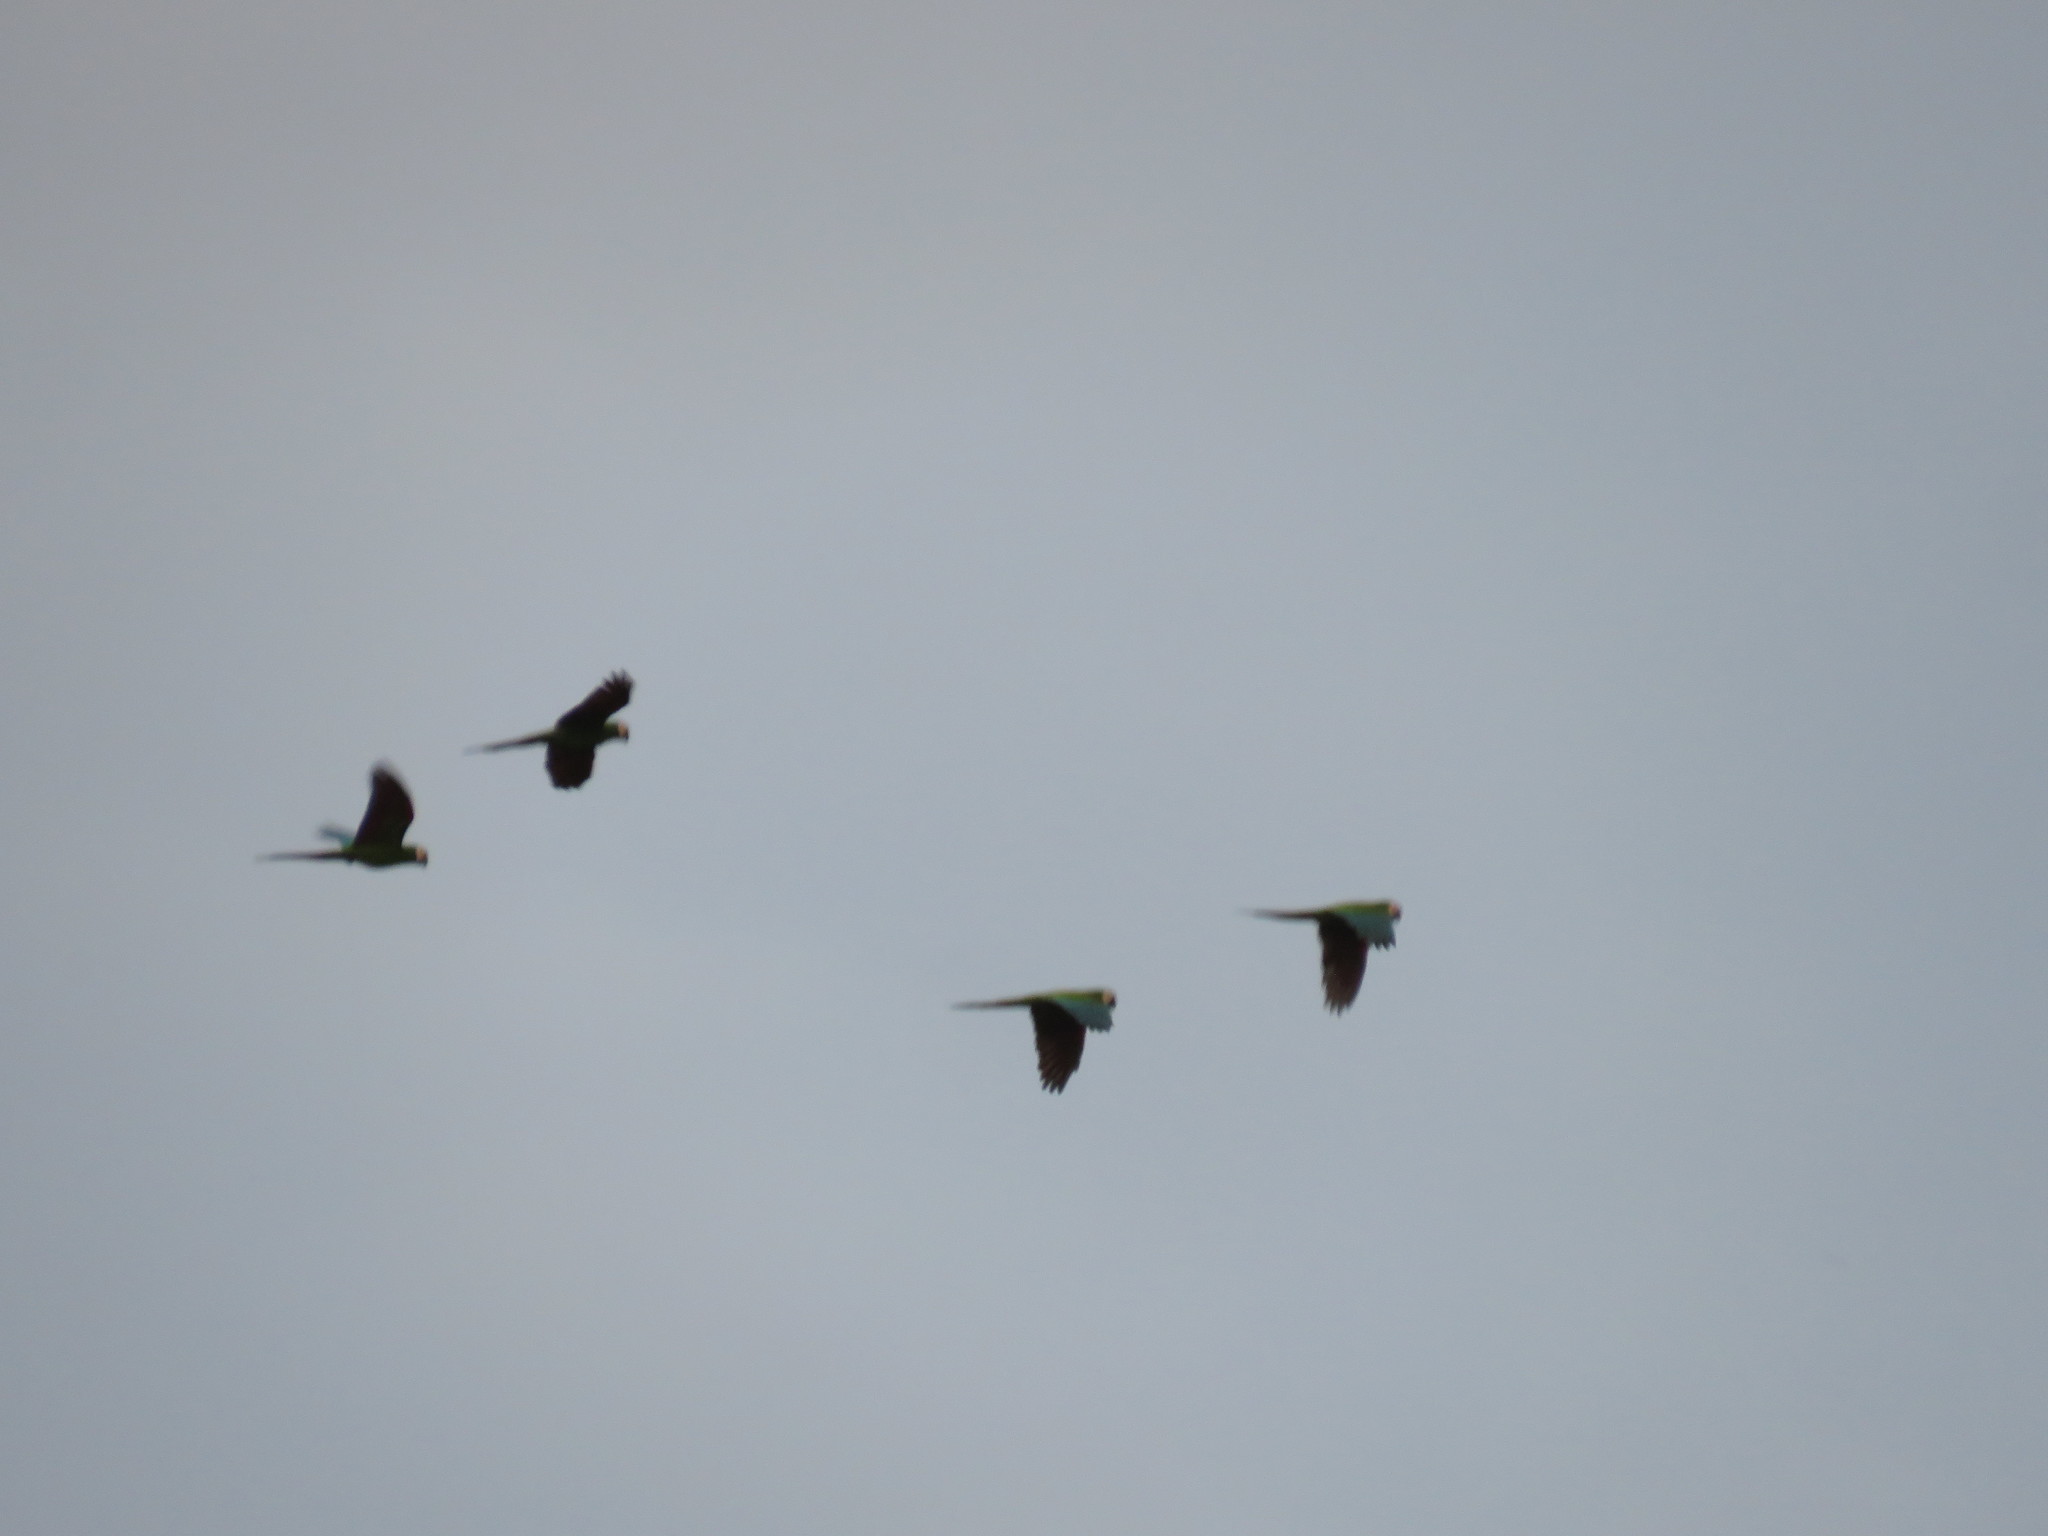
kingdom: Animalia
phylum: Chordata
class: Aves
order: Psittaciformes
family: Psittacidae
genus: Orthopsittaca
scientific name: Orthopsittaca manilata
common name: Red-bellied macaw
